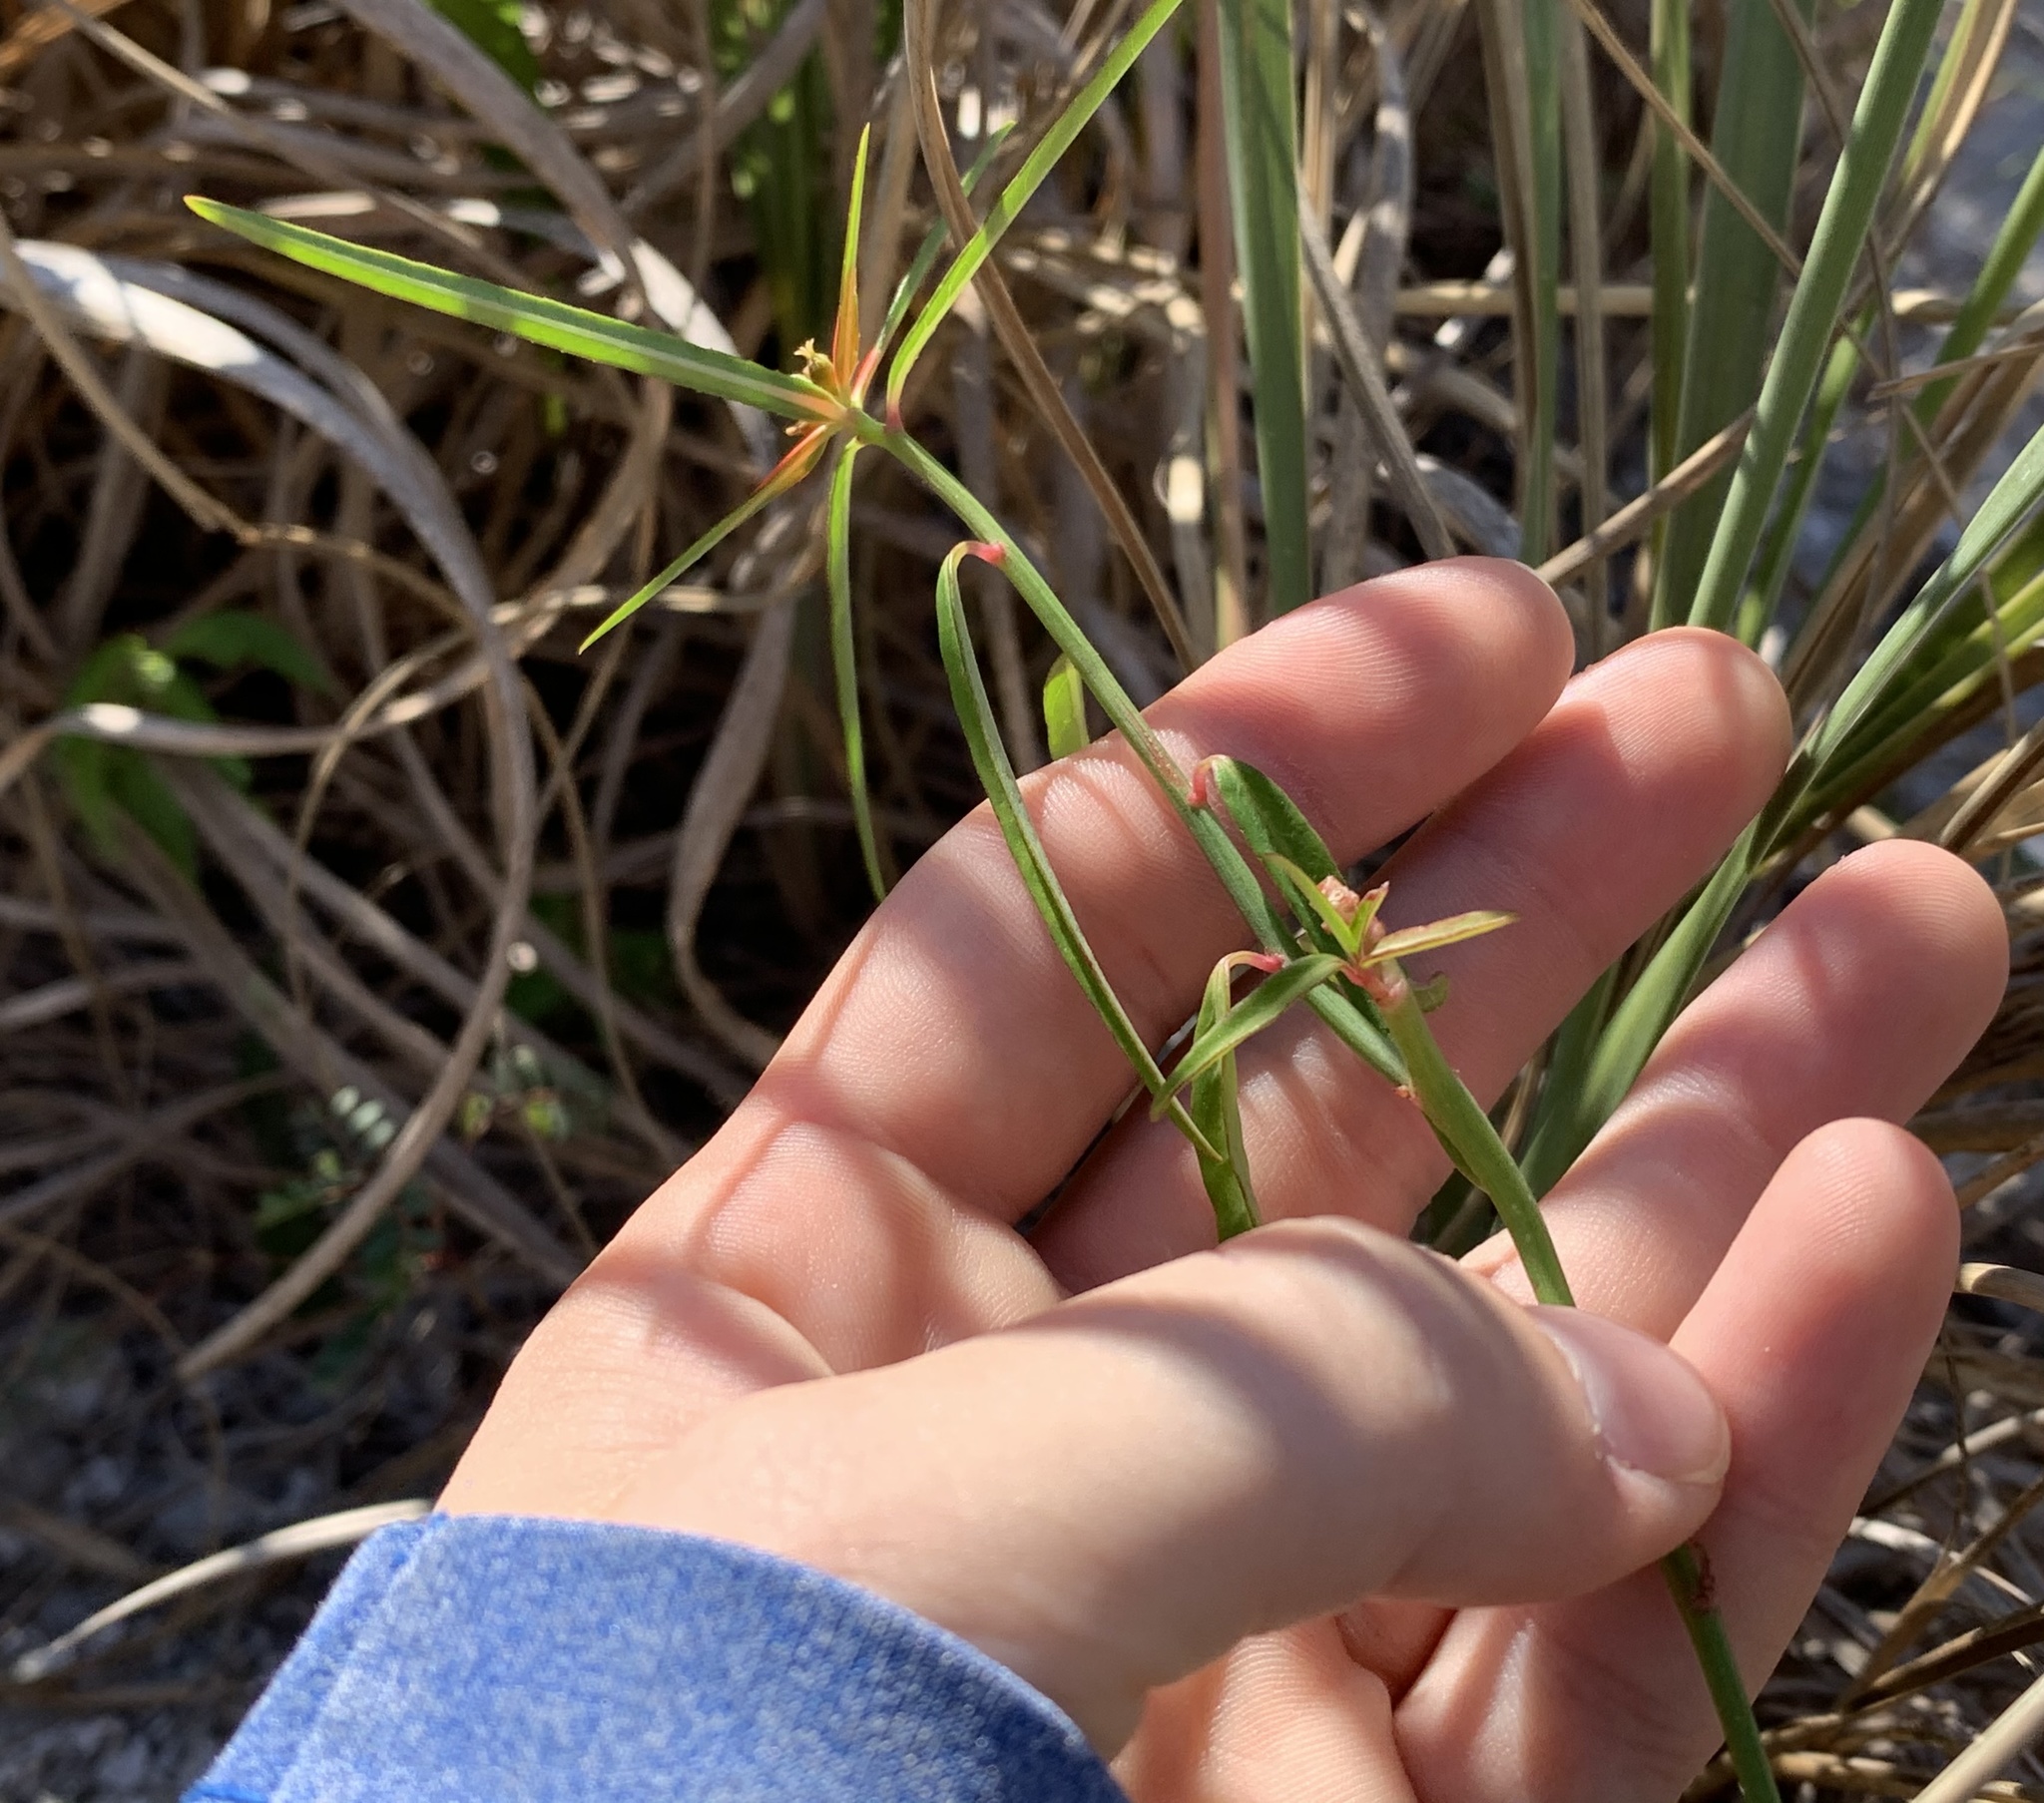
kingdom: Plantae
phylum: Tracheophyta
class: Magnoliopsida
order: Malpighiales
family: Euphorbiaceae
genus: Euphorbia
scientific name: Euphorbia heterophylla
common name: Mexican fireplant
